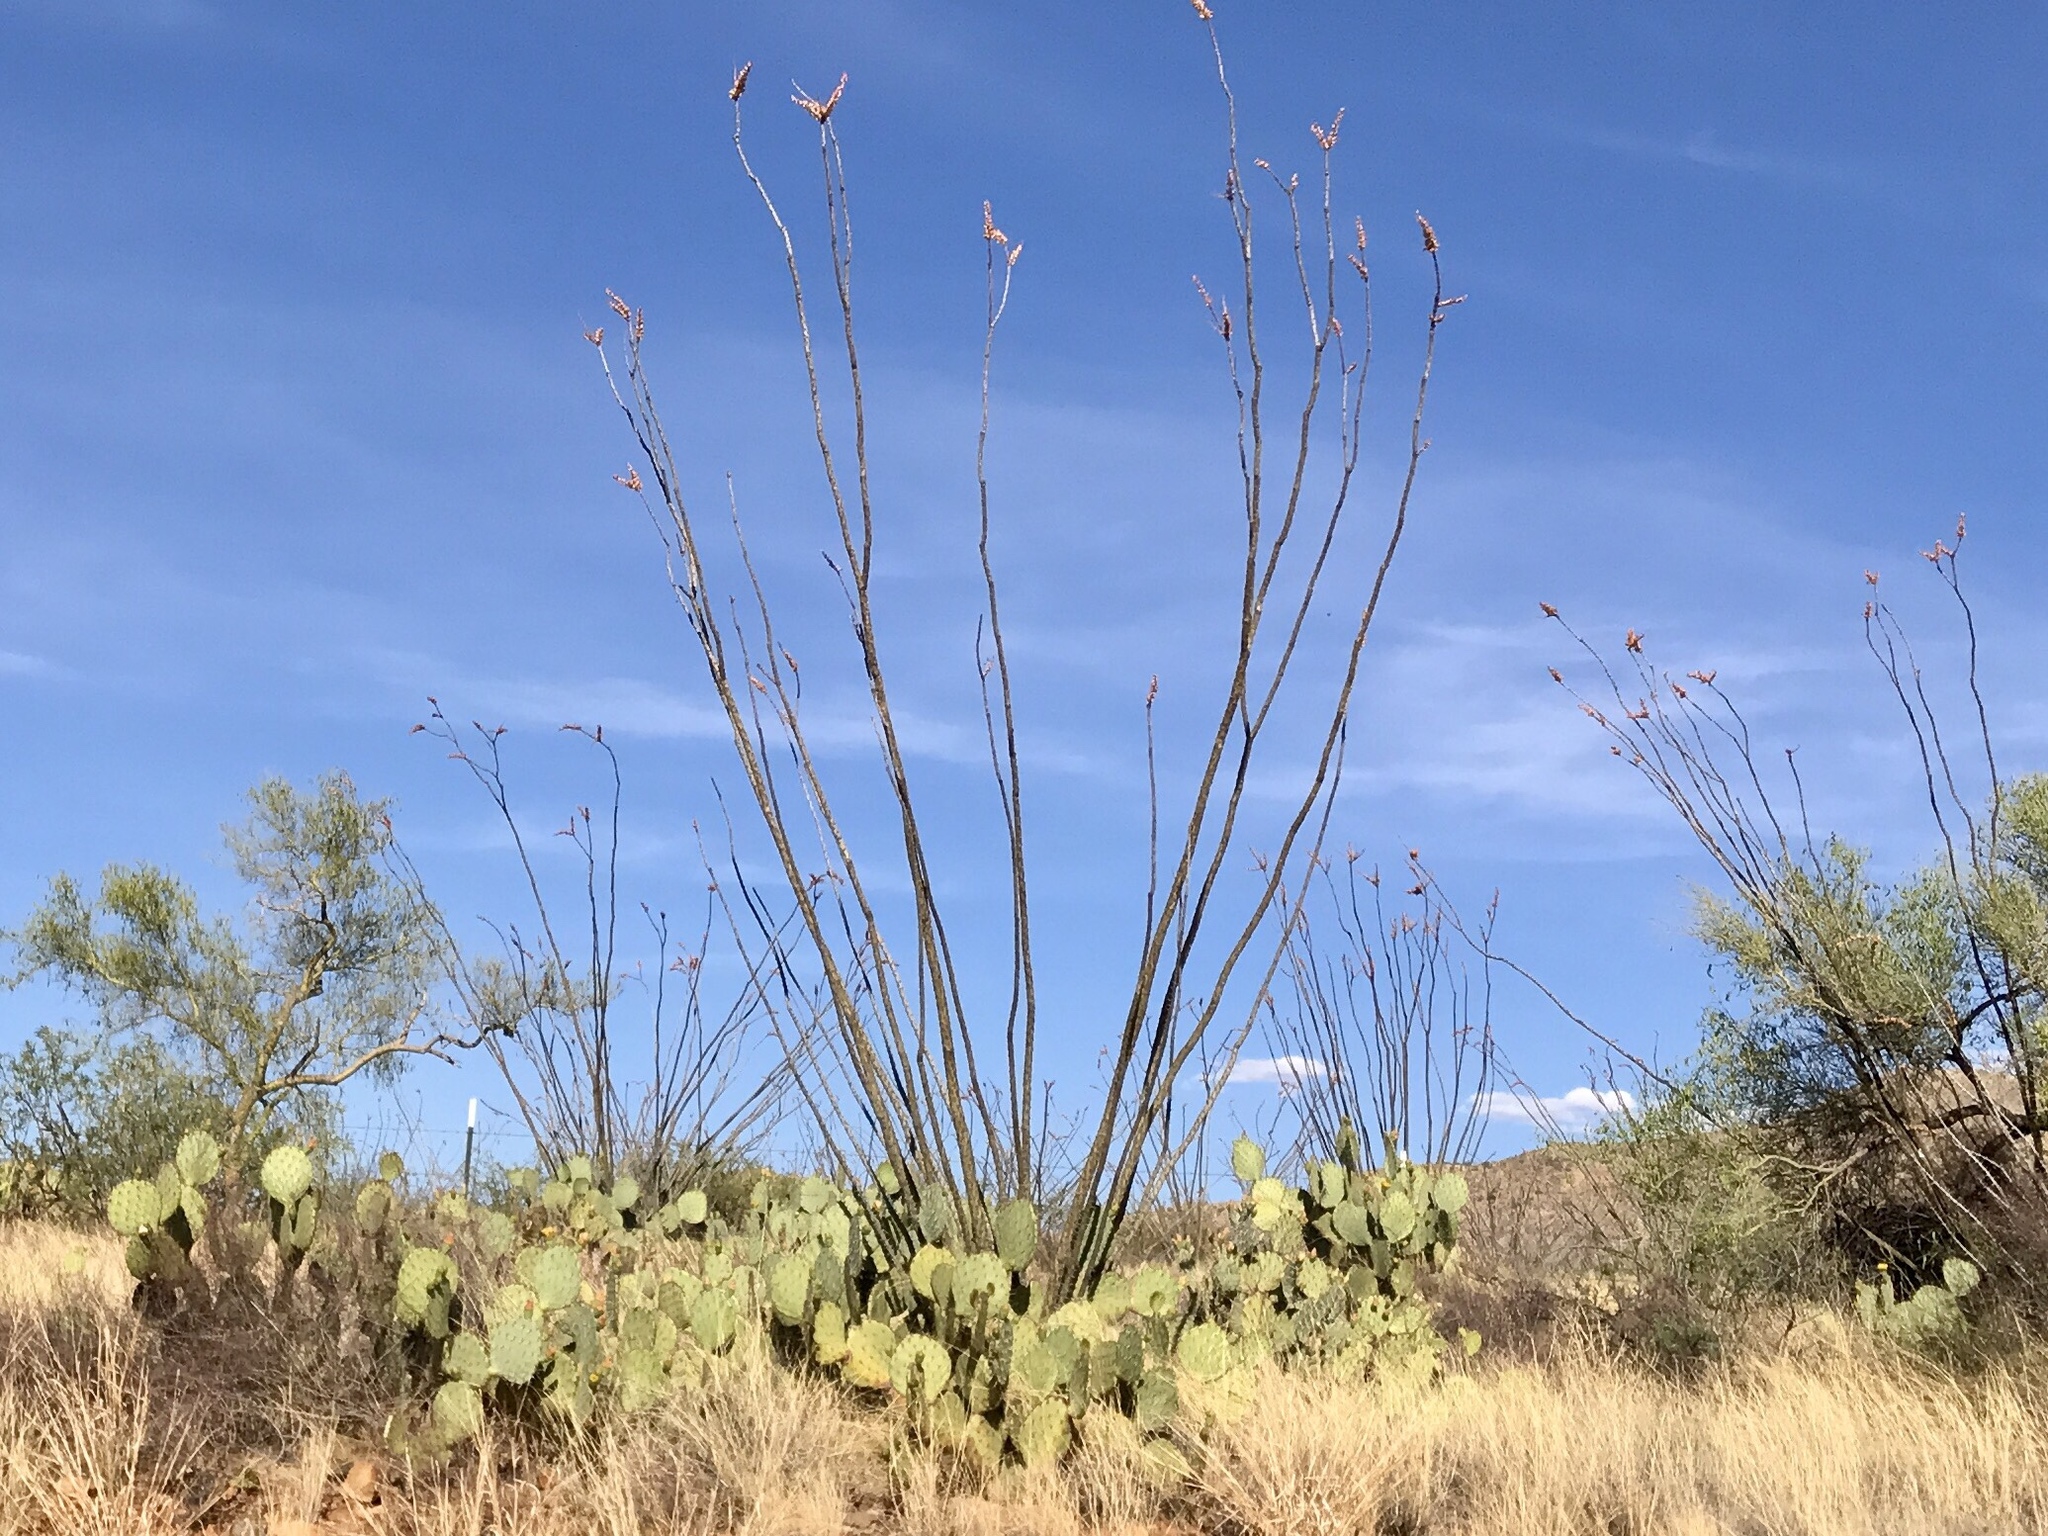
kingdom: Plantae
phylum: Tracheophyta
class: Magnoliopsida
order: Ericales
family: Fouquieriaceae
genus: Fouquieria
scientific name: Fouquieria splendens
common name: Vine-cactus
